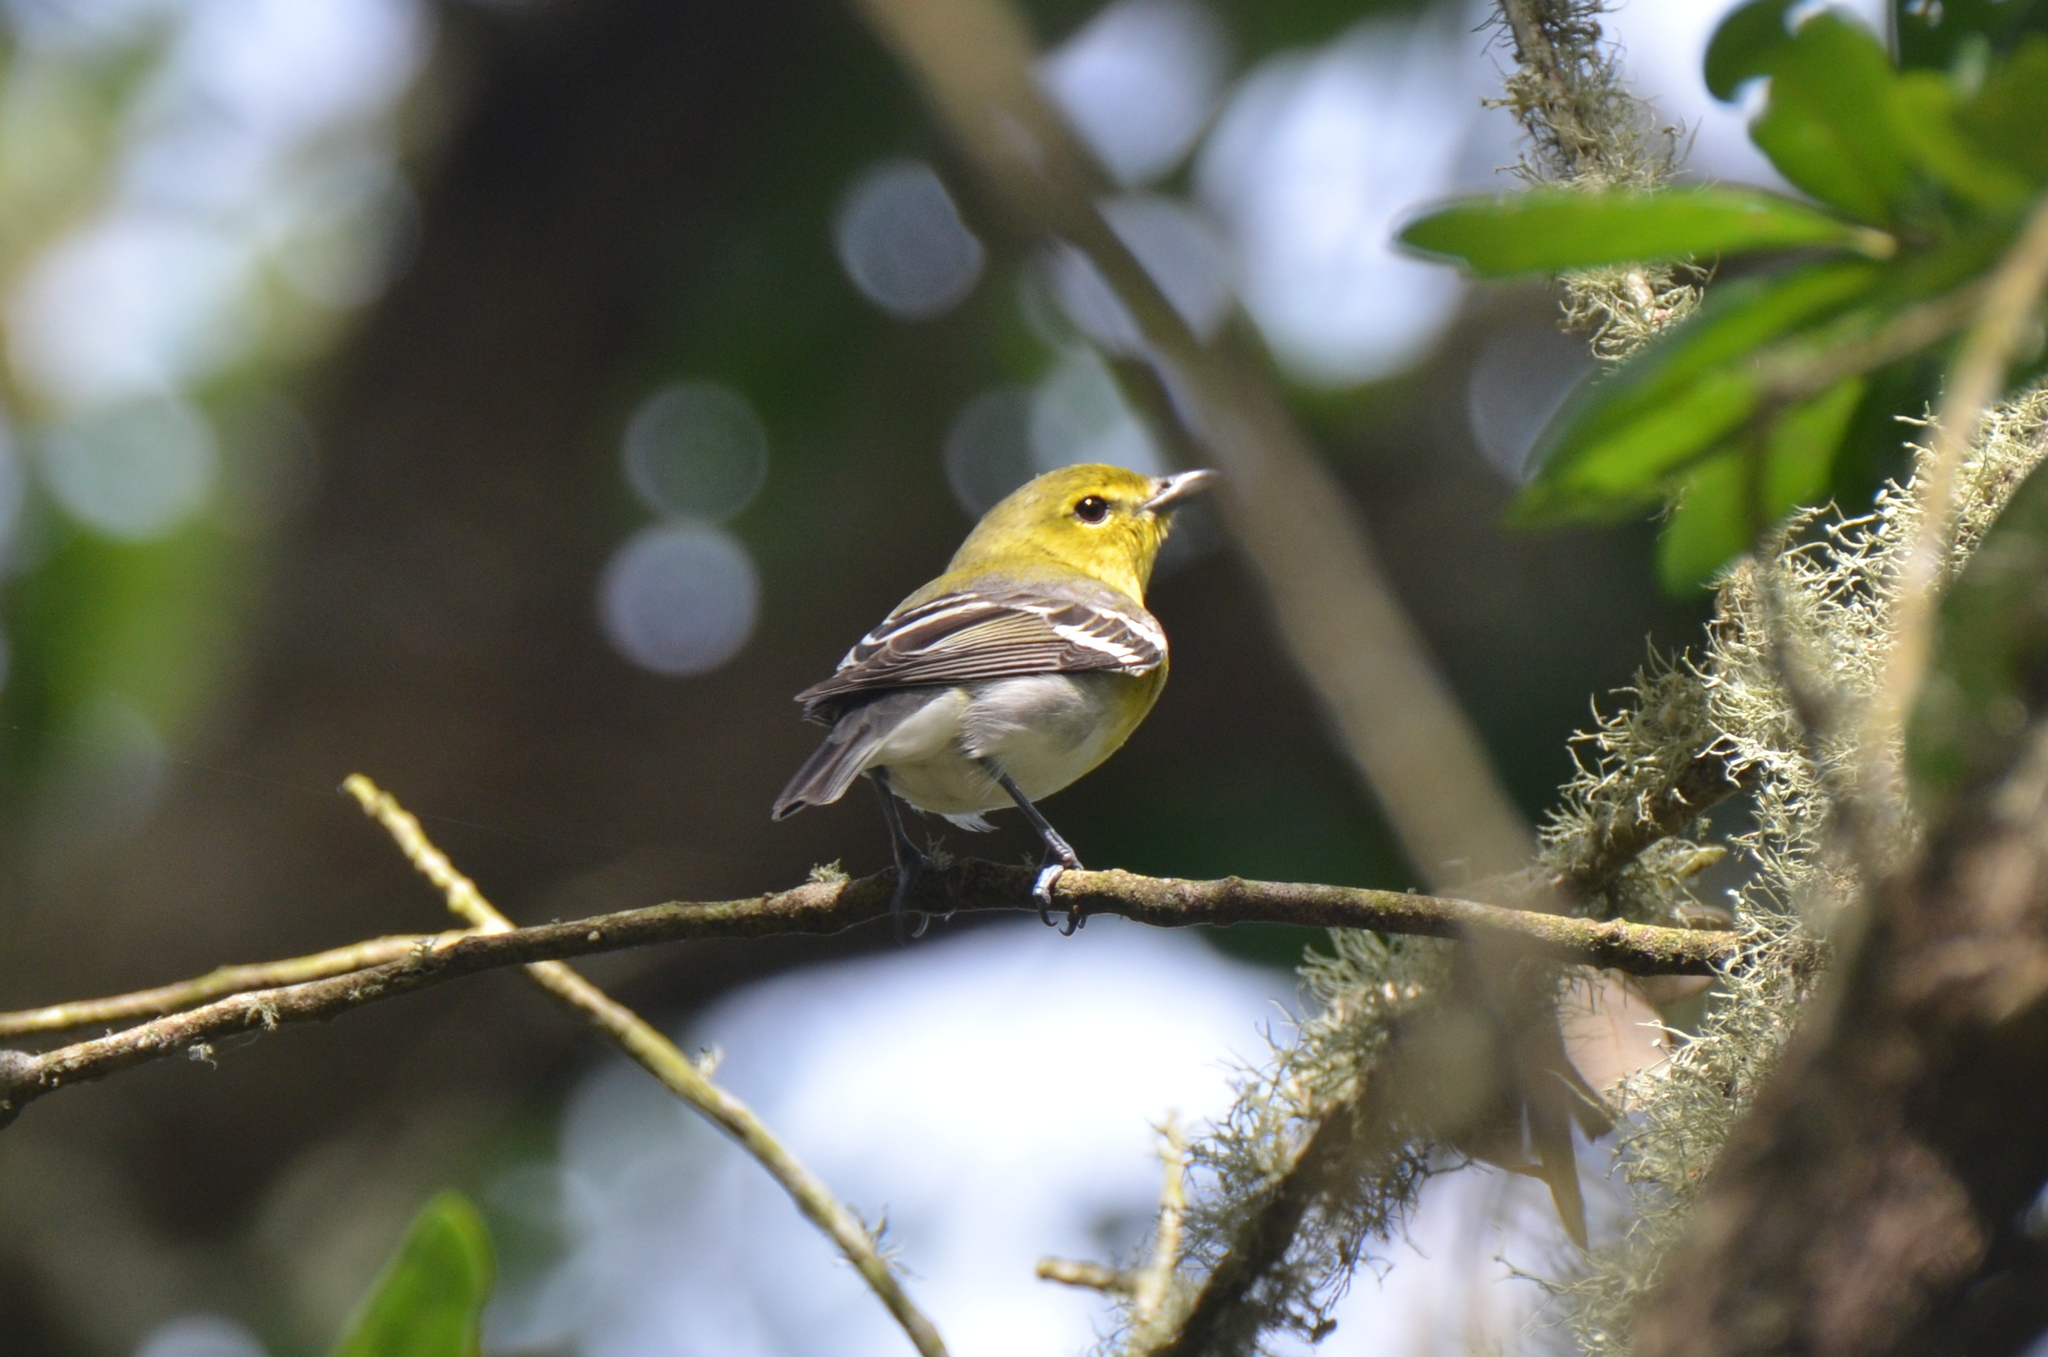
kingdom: Animalia
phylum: Chordata
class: Aves
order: Passeriformes
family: Vireonidae
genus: Vireo
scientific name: Vireo flavifrons
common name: Yellow-throated vireo
